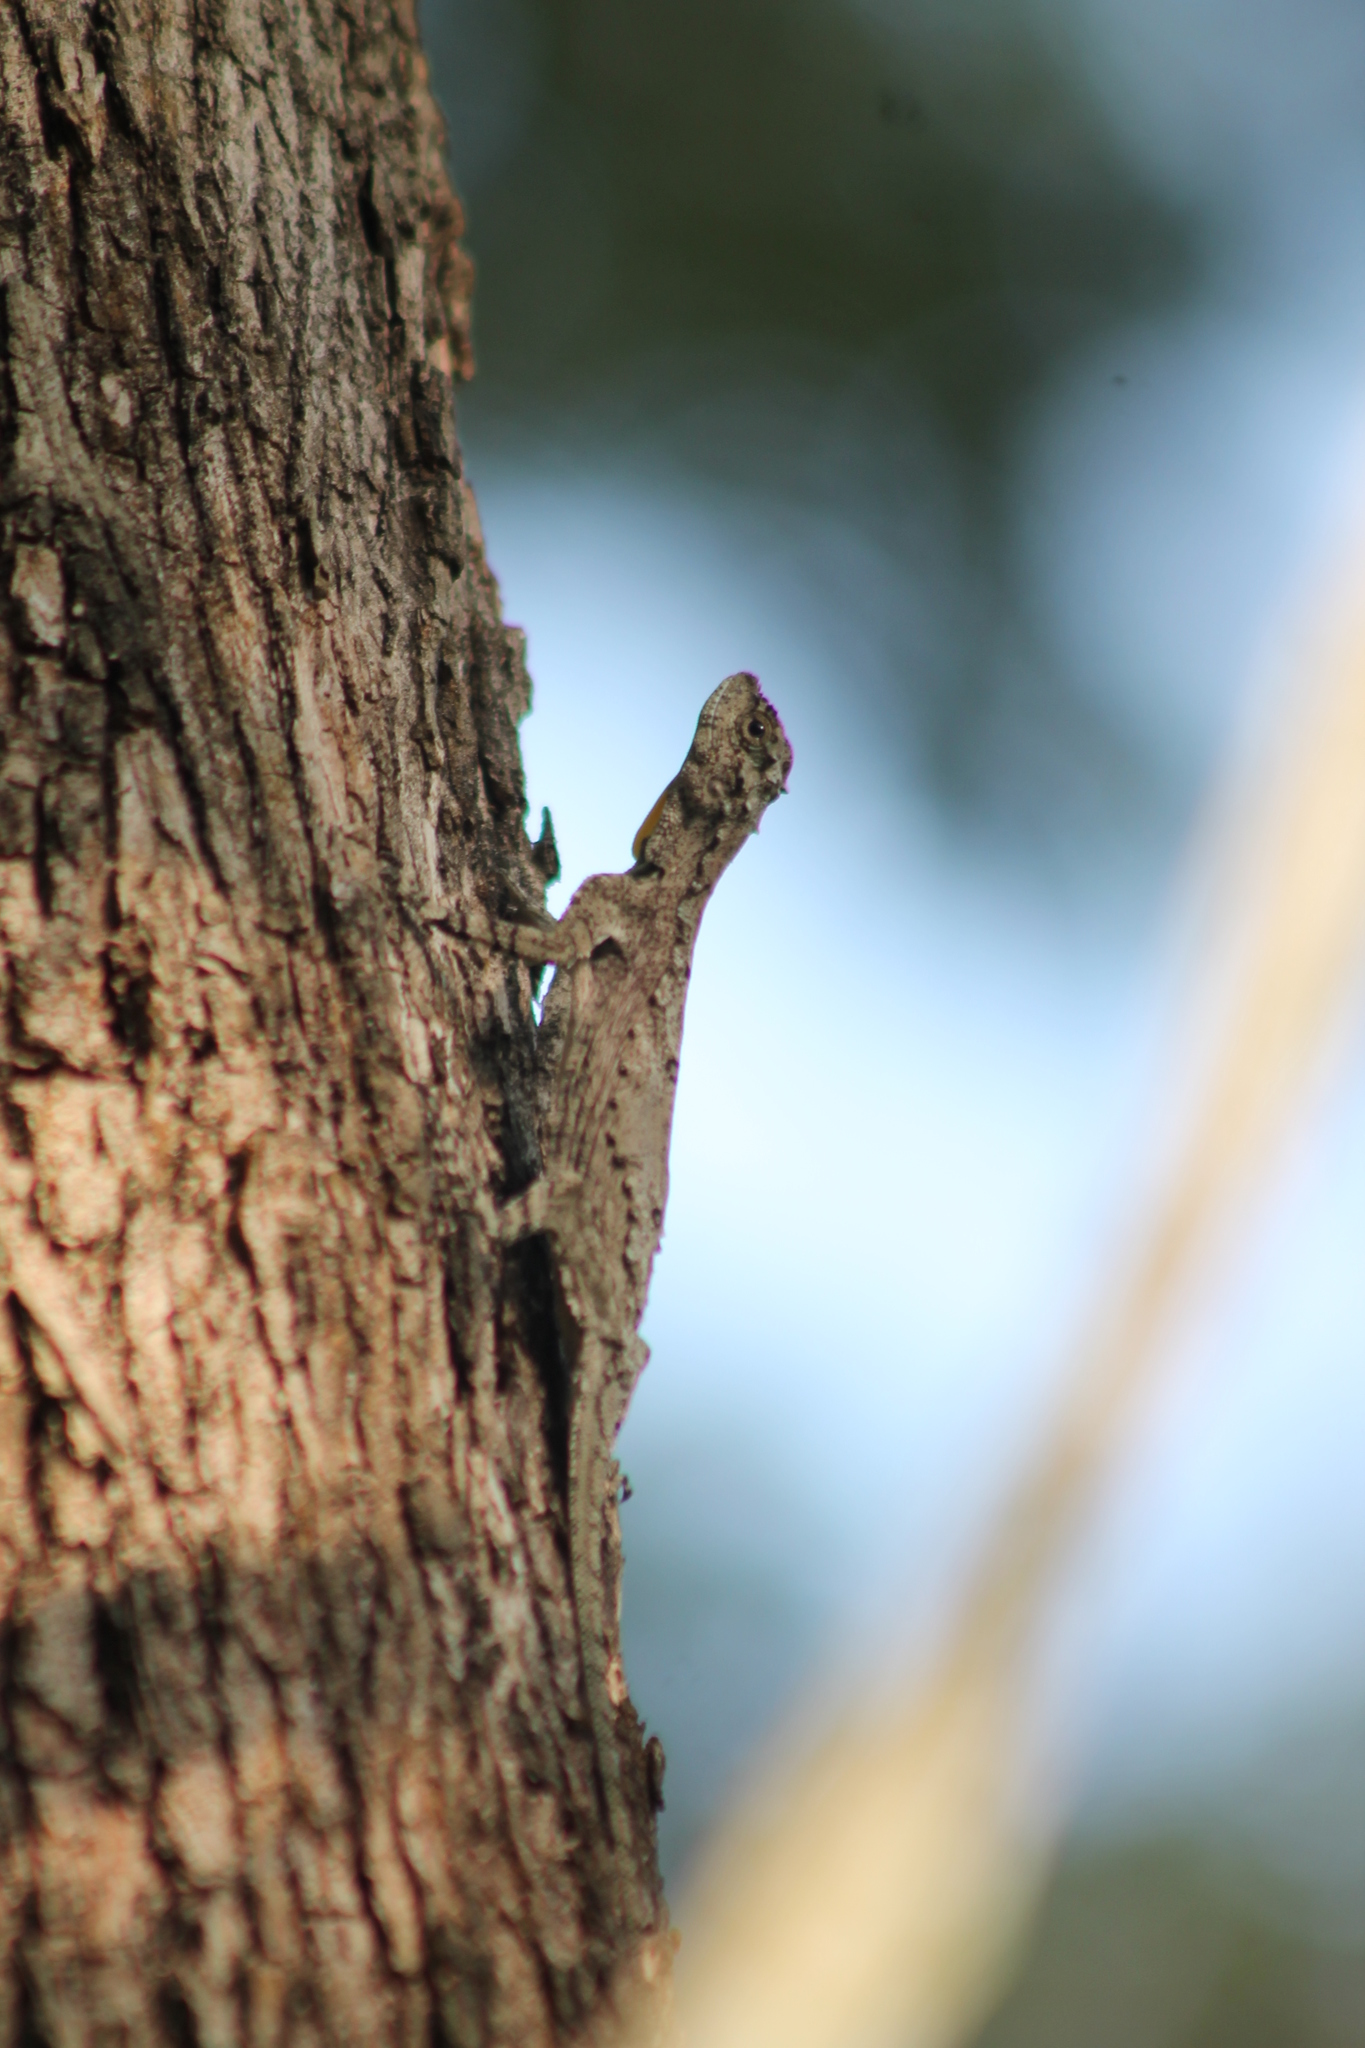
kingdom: Animalia
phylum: Chordata
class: Squamata
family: Agamidae
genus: Draco
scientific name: Draco dussumieri
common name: Southern flying lizard
